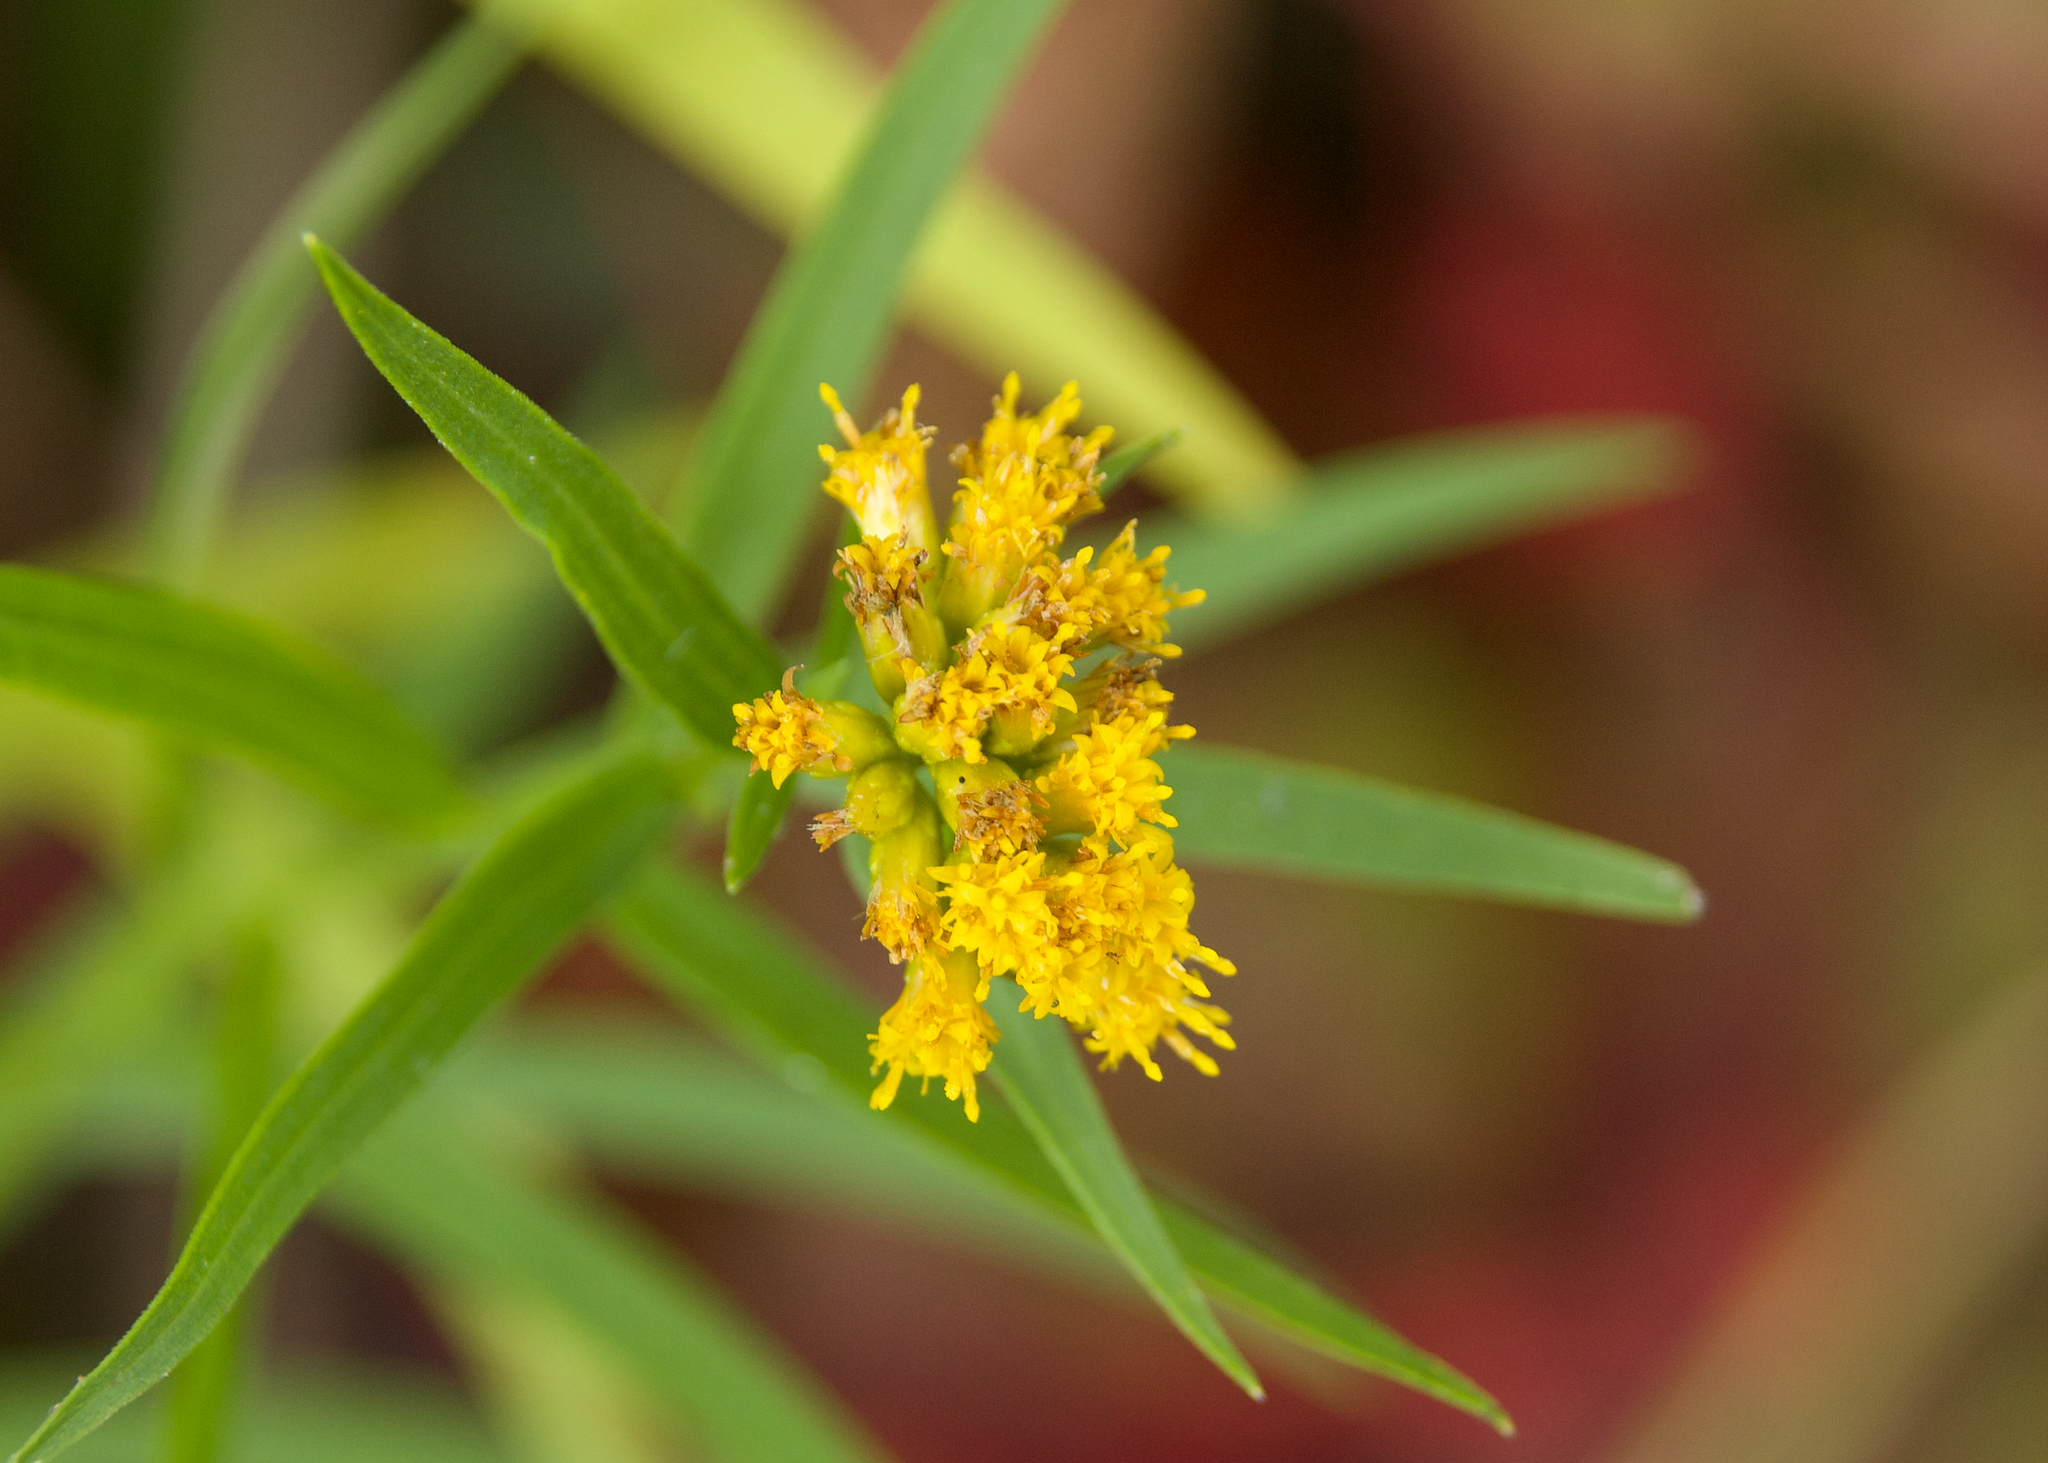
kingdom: Plantae
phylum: Tracheophyta
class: Magnoliopsida
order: Asterales
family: Asteraceae
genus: Euthamia
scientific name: Euthamia graminifolia
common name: Common goldentop
